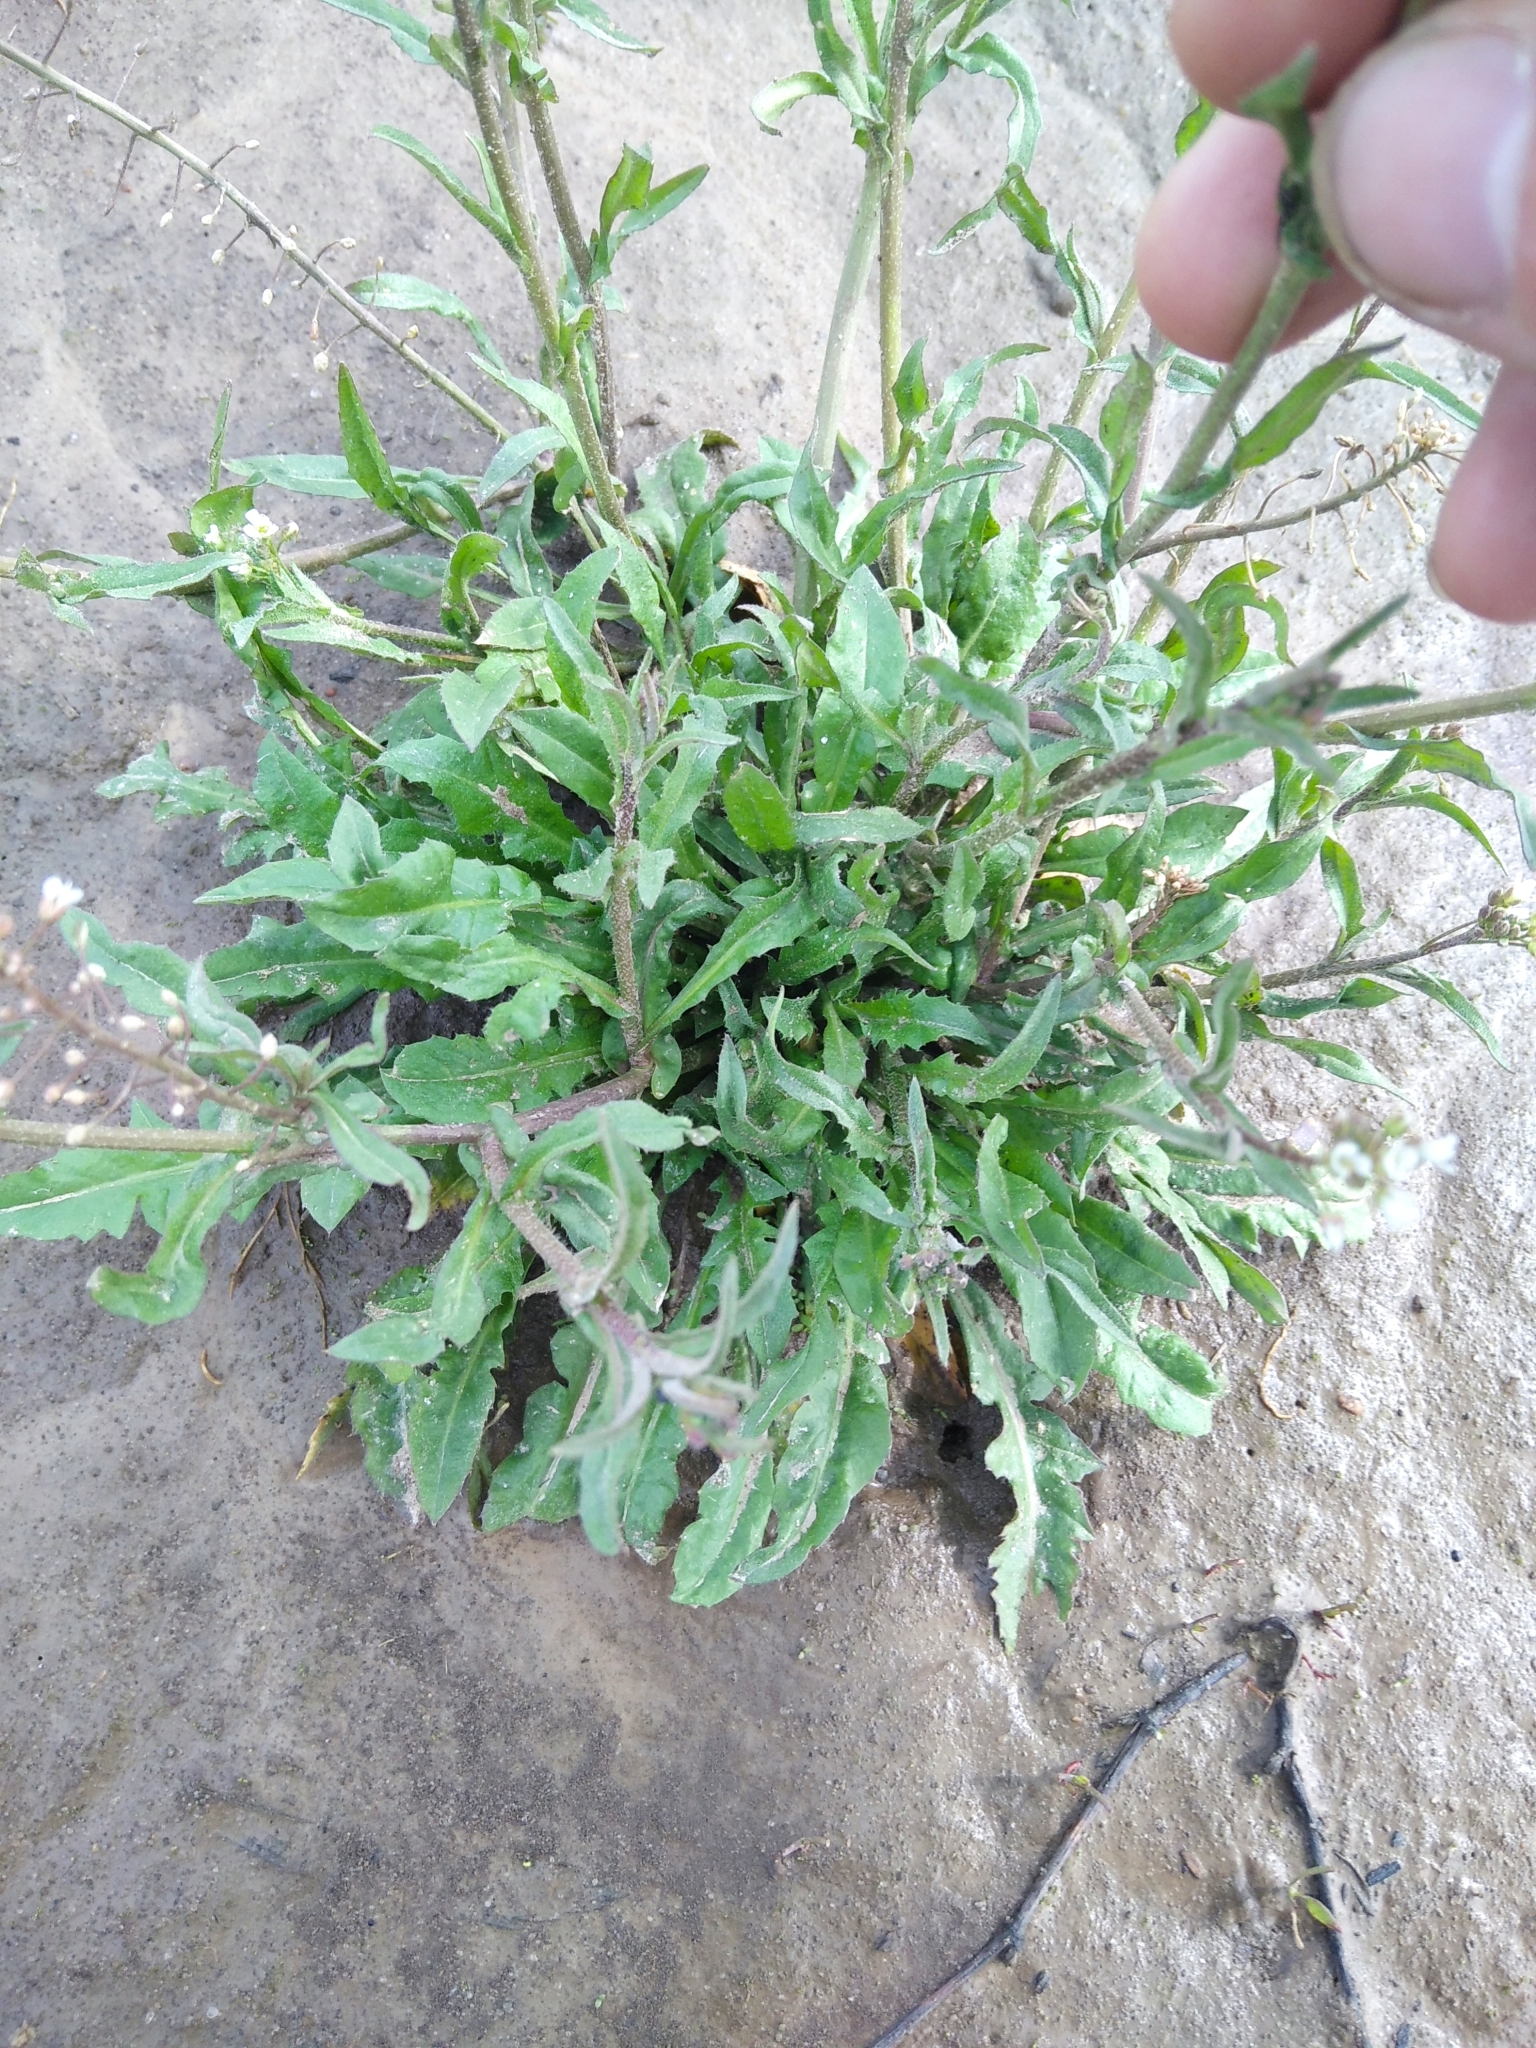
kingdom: Plantae
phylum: Tracheophyta
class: Magnoliopsida
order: Brassicales
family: Brassicaceae
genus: Capsella
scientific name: Capsella bursa-pastoris
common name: Shepherd's purse
